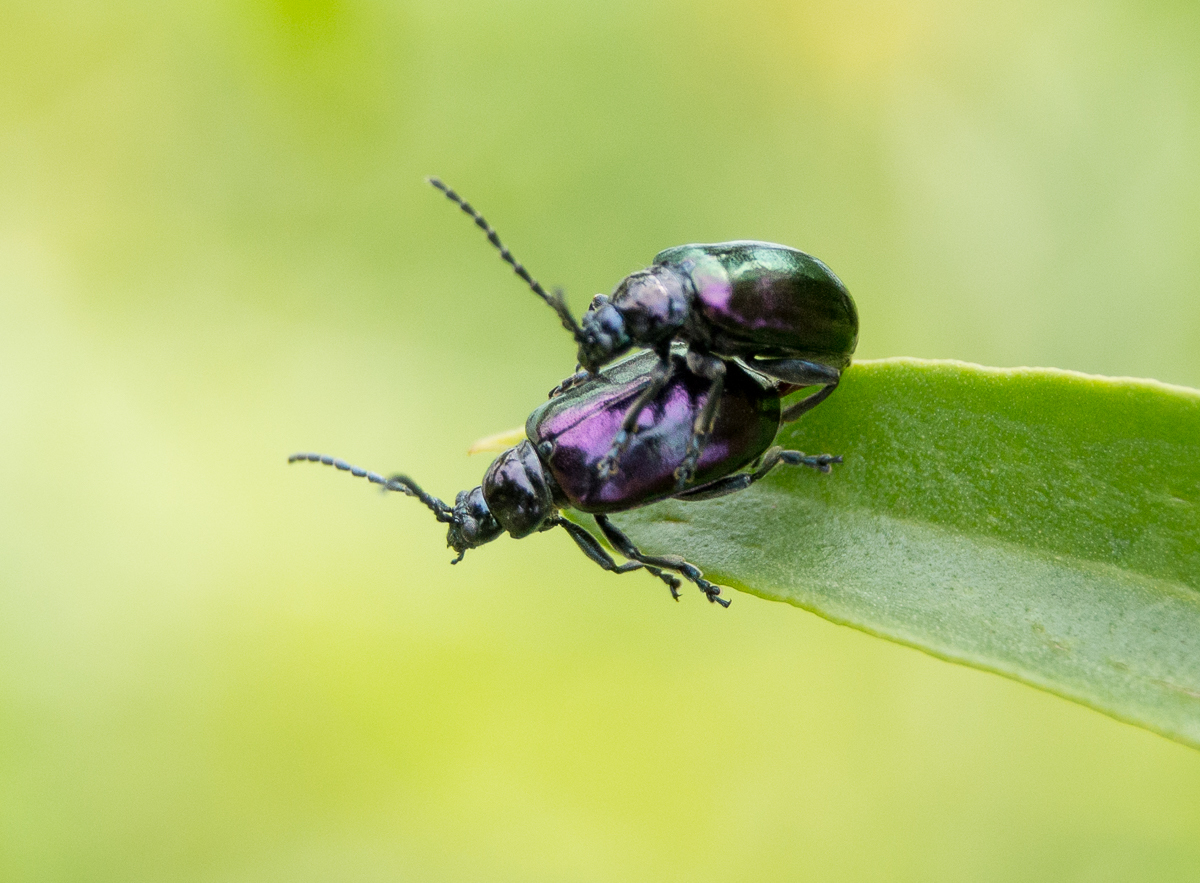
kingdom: Animalia
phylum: Arthropoda
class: Insecta
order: Coleoptera
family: Chrysomelidae
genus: Macrohaltica
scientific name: Macrohaltica
